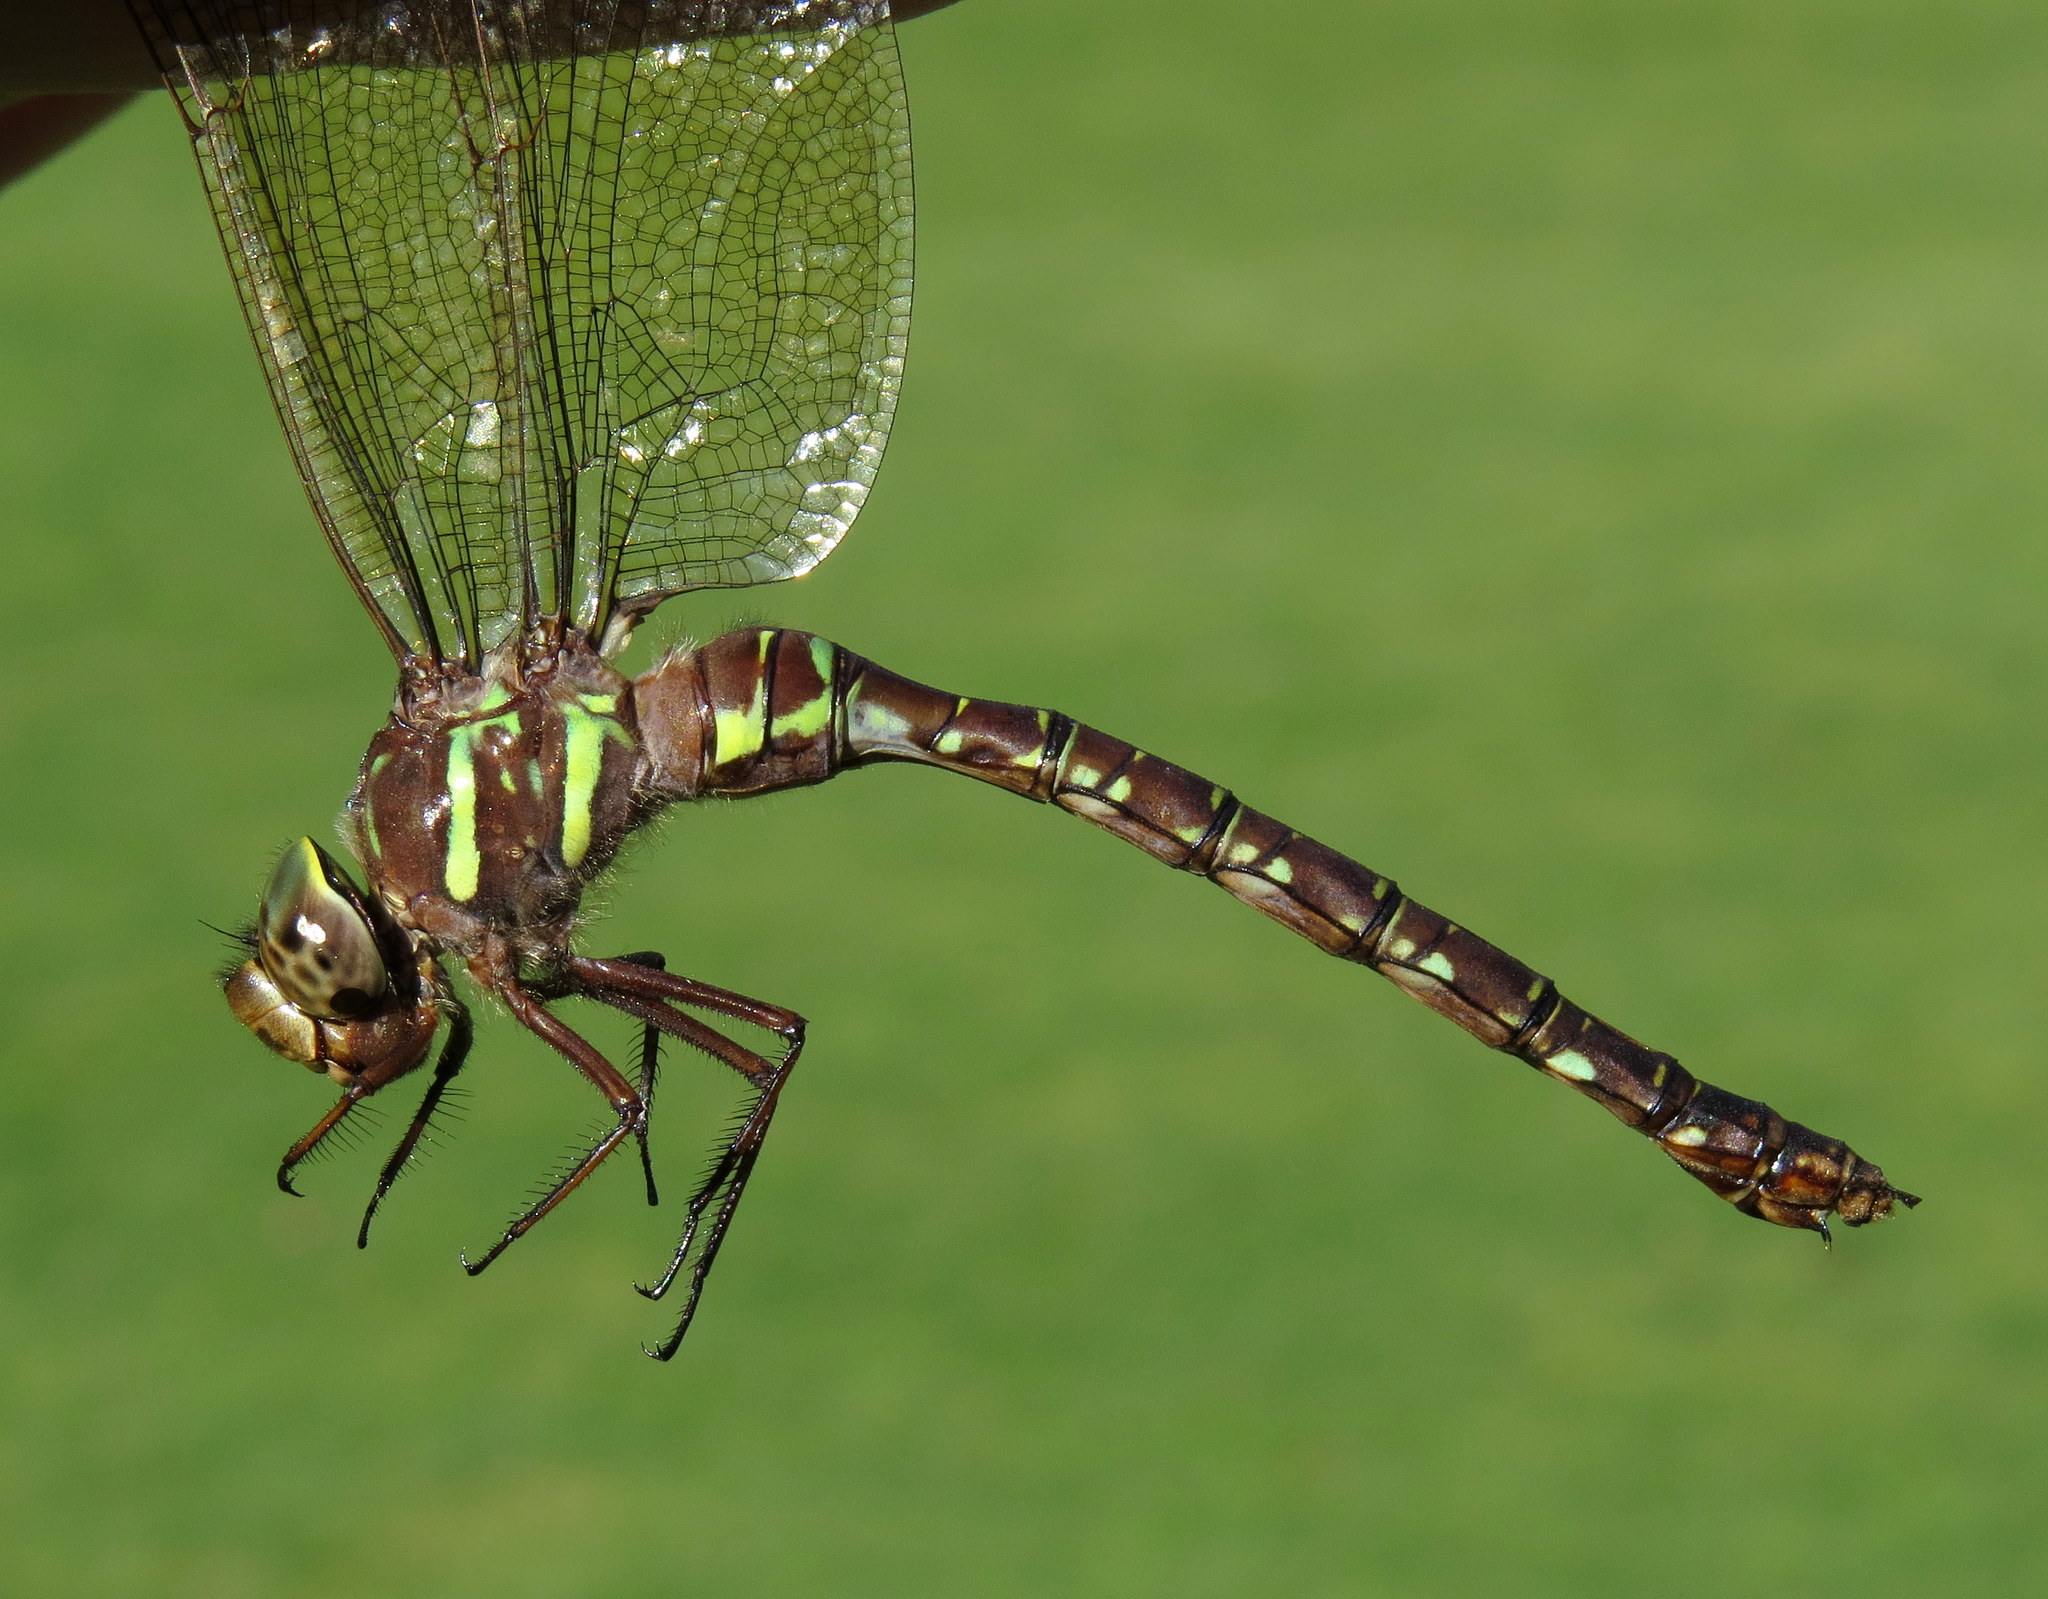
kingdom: Animalia
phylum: Arthropoda
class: Insecta
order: Odonata
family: Aeshnidae
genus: Aeshna
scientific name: Aeshna umbrosa
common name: Shadow darner
